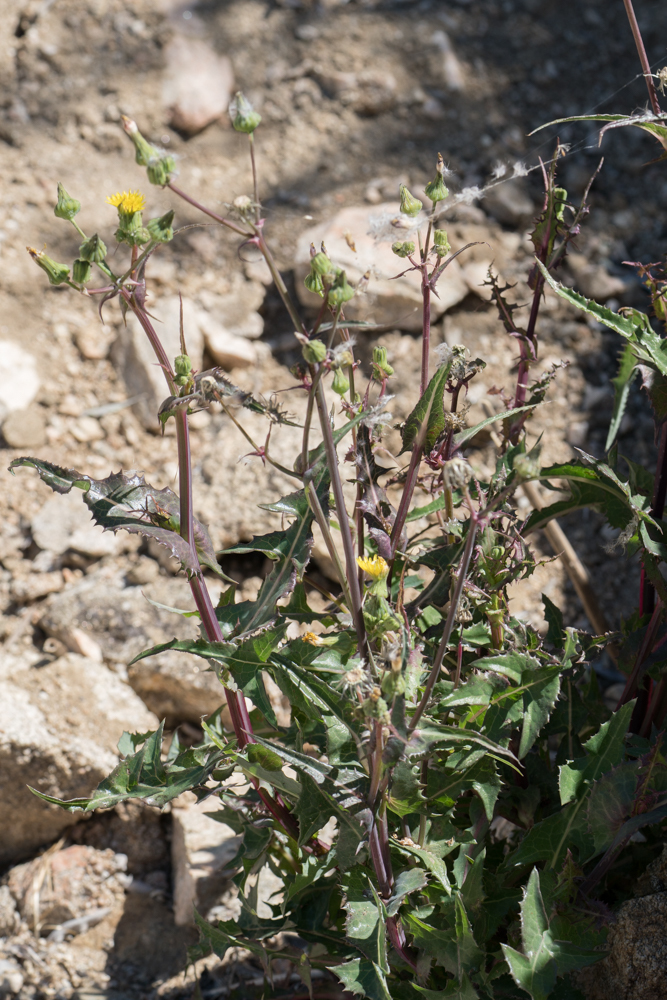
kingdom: Plantae
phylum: Tracheophyta
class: Magnoliopsida
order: Asterales
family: Asteraceae
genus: Sonchus
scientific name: Sonchus asper
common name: Prickly sow-thistle
